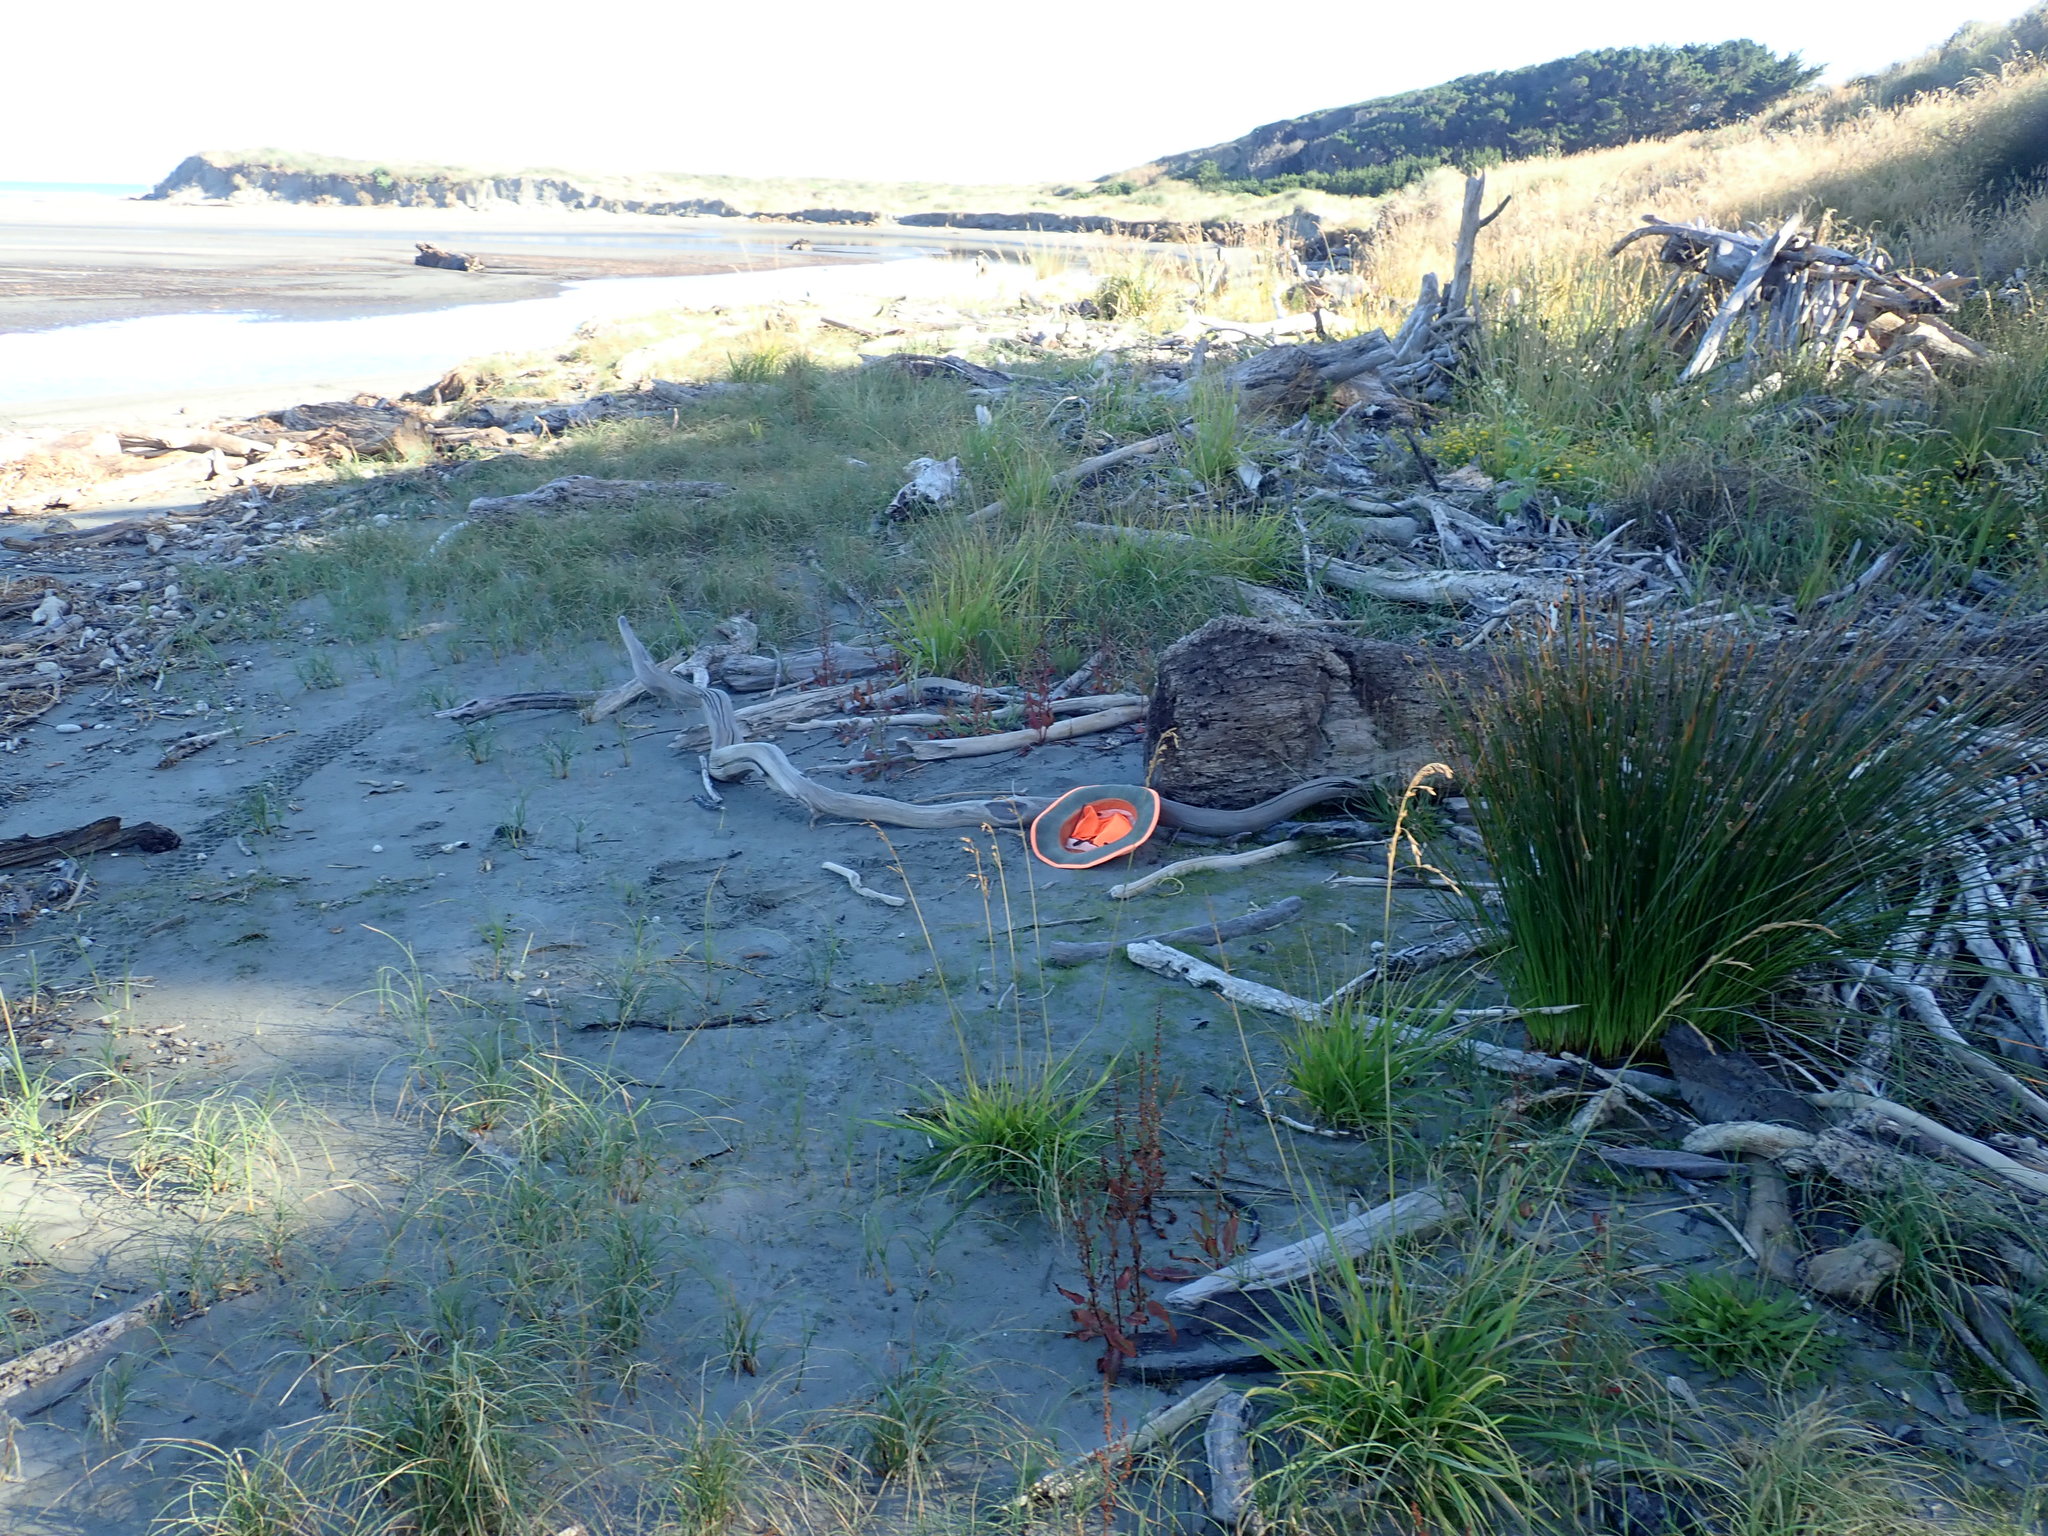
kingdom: Plantae
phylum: Tracheophyta
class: Magnoliopsida
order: Apiales
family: Apiaceae
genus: Lilaeopsis
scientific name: Lilaeopsis novae-zelandiae
